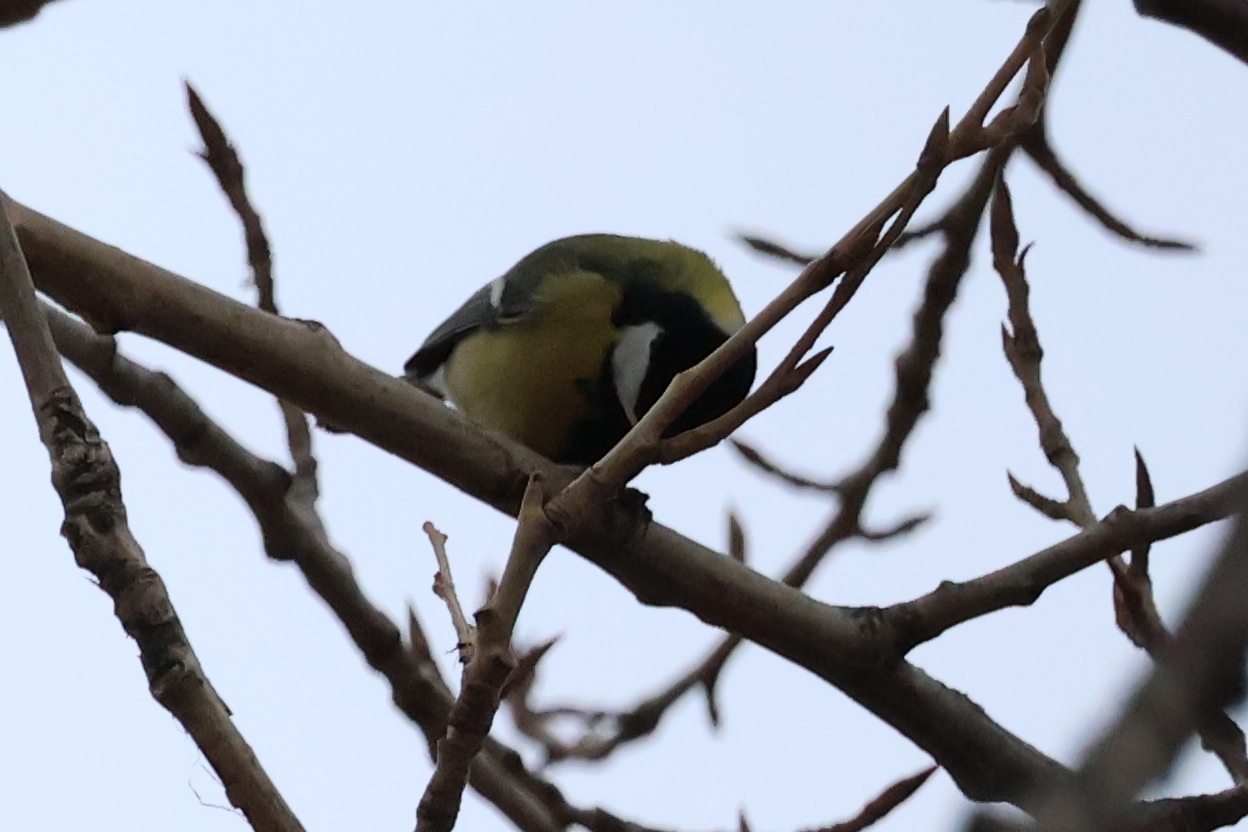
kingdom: Animalia
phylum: Chordata
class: Aves
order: Passeriformes
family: Paridae
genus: Parus
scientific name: Parus major
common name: Great tit
